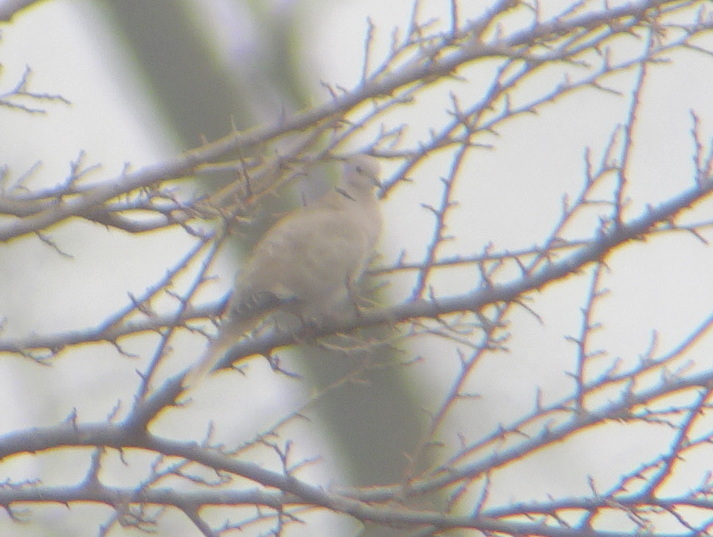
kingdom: Animalia
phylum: Chordata
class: Aves
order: Columbiformes
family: Columbidae
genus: Streptopelia
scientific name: Streptopelia decaocto
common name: Eurasian collared dove
